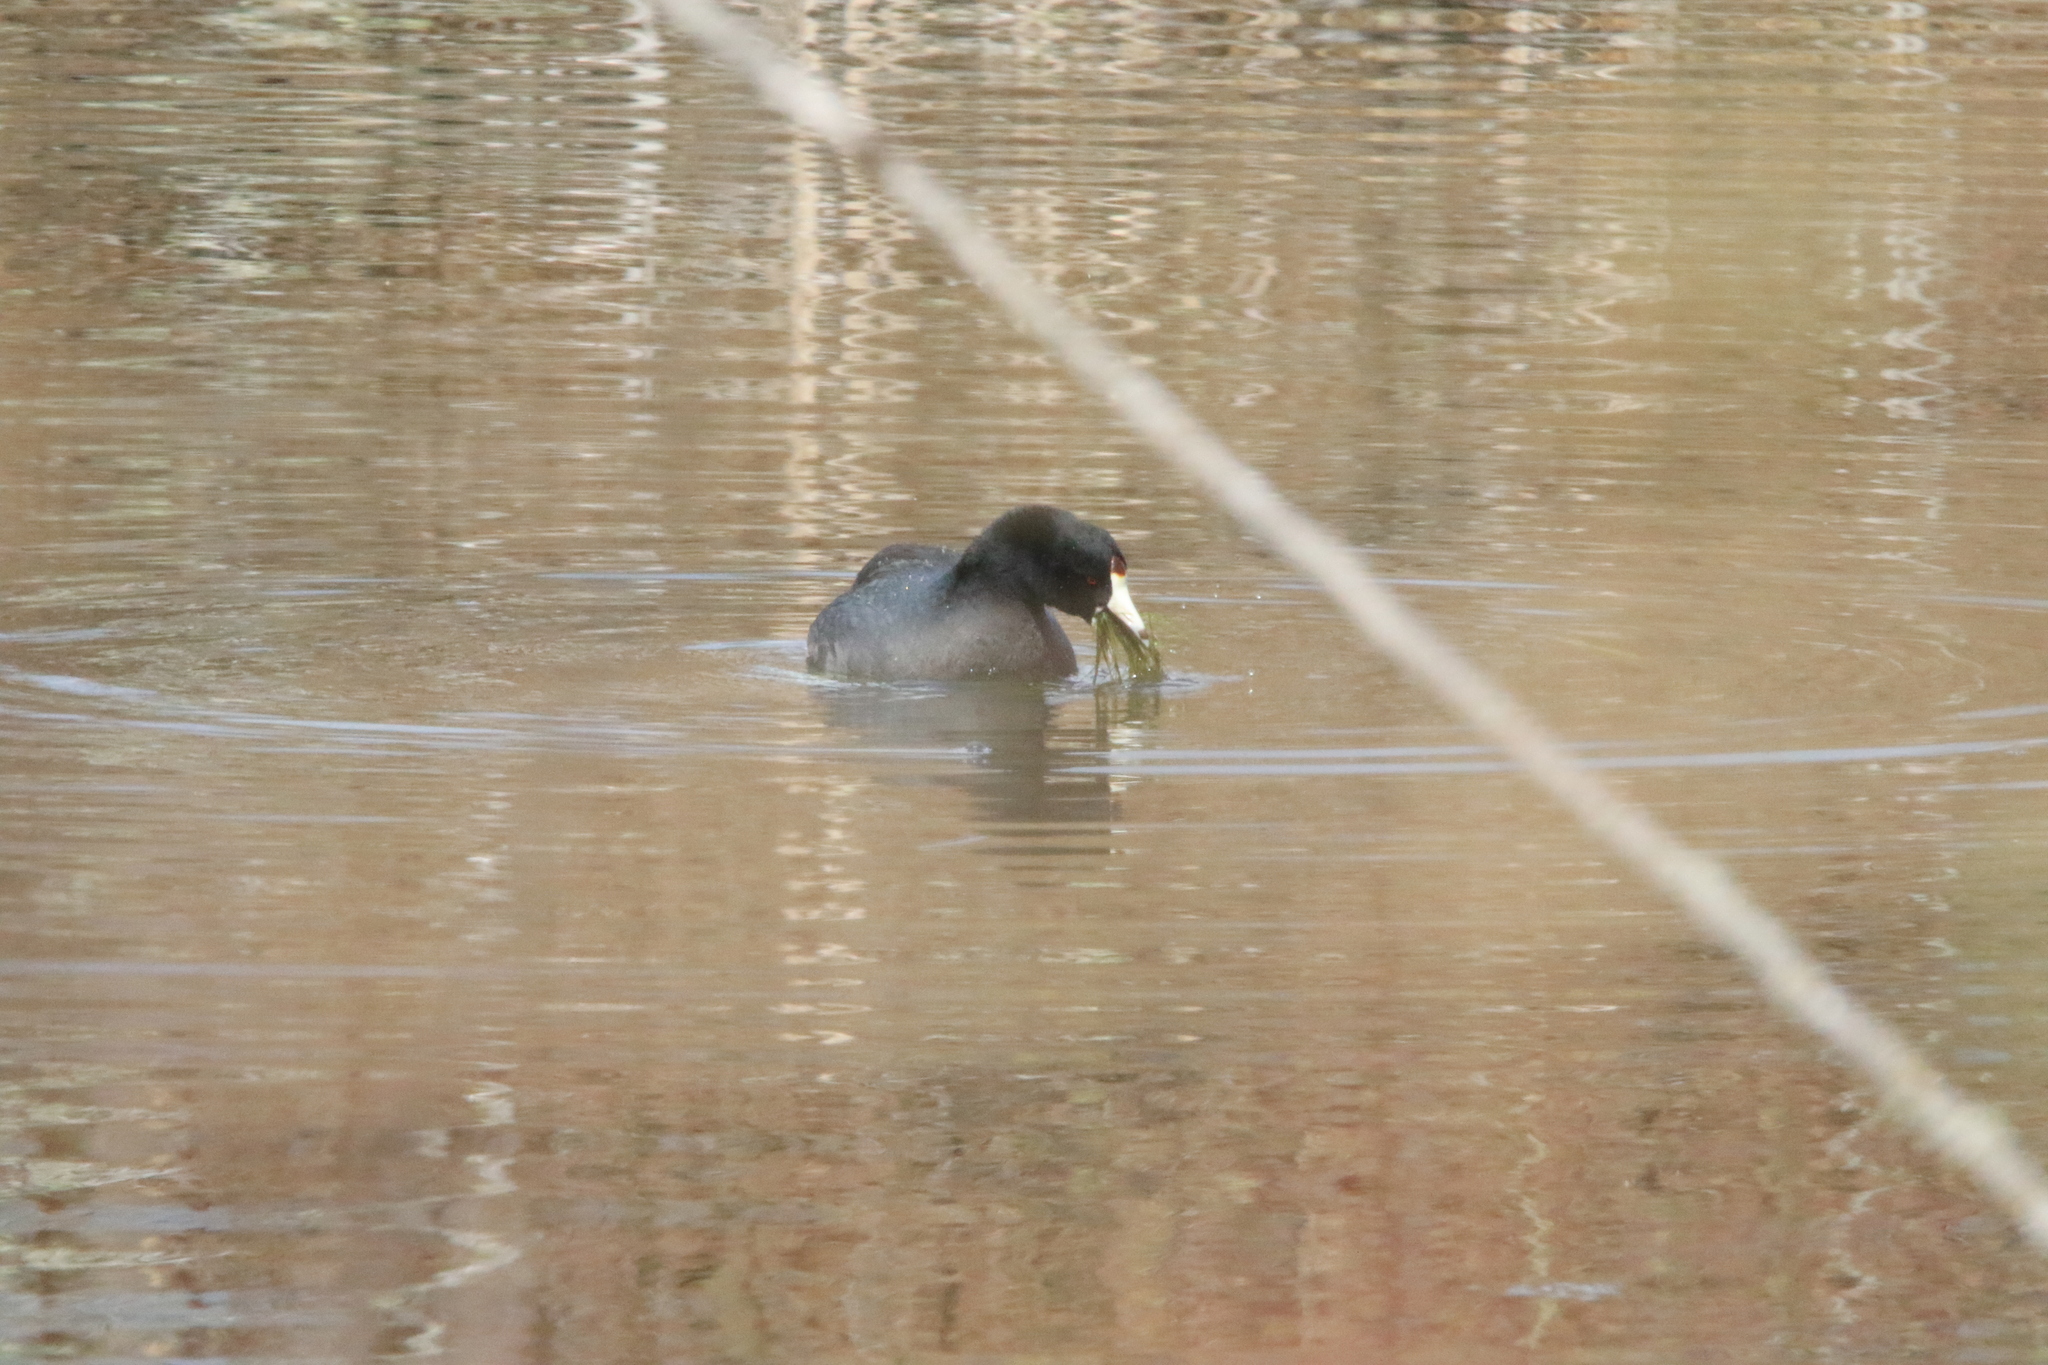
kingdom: Animalia
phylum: Chordata
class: Aves
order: Gruiformes
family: Rallidae
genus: Fulica
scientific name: Fulica americana
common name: American coot
